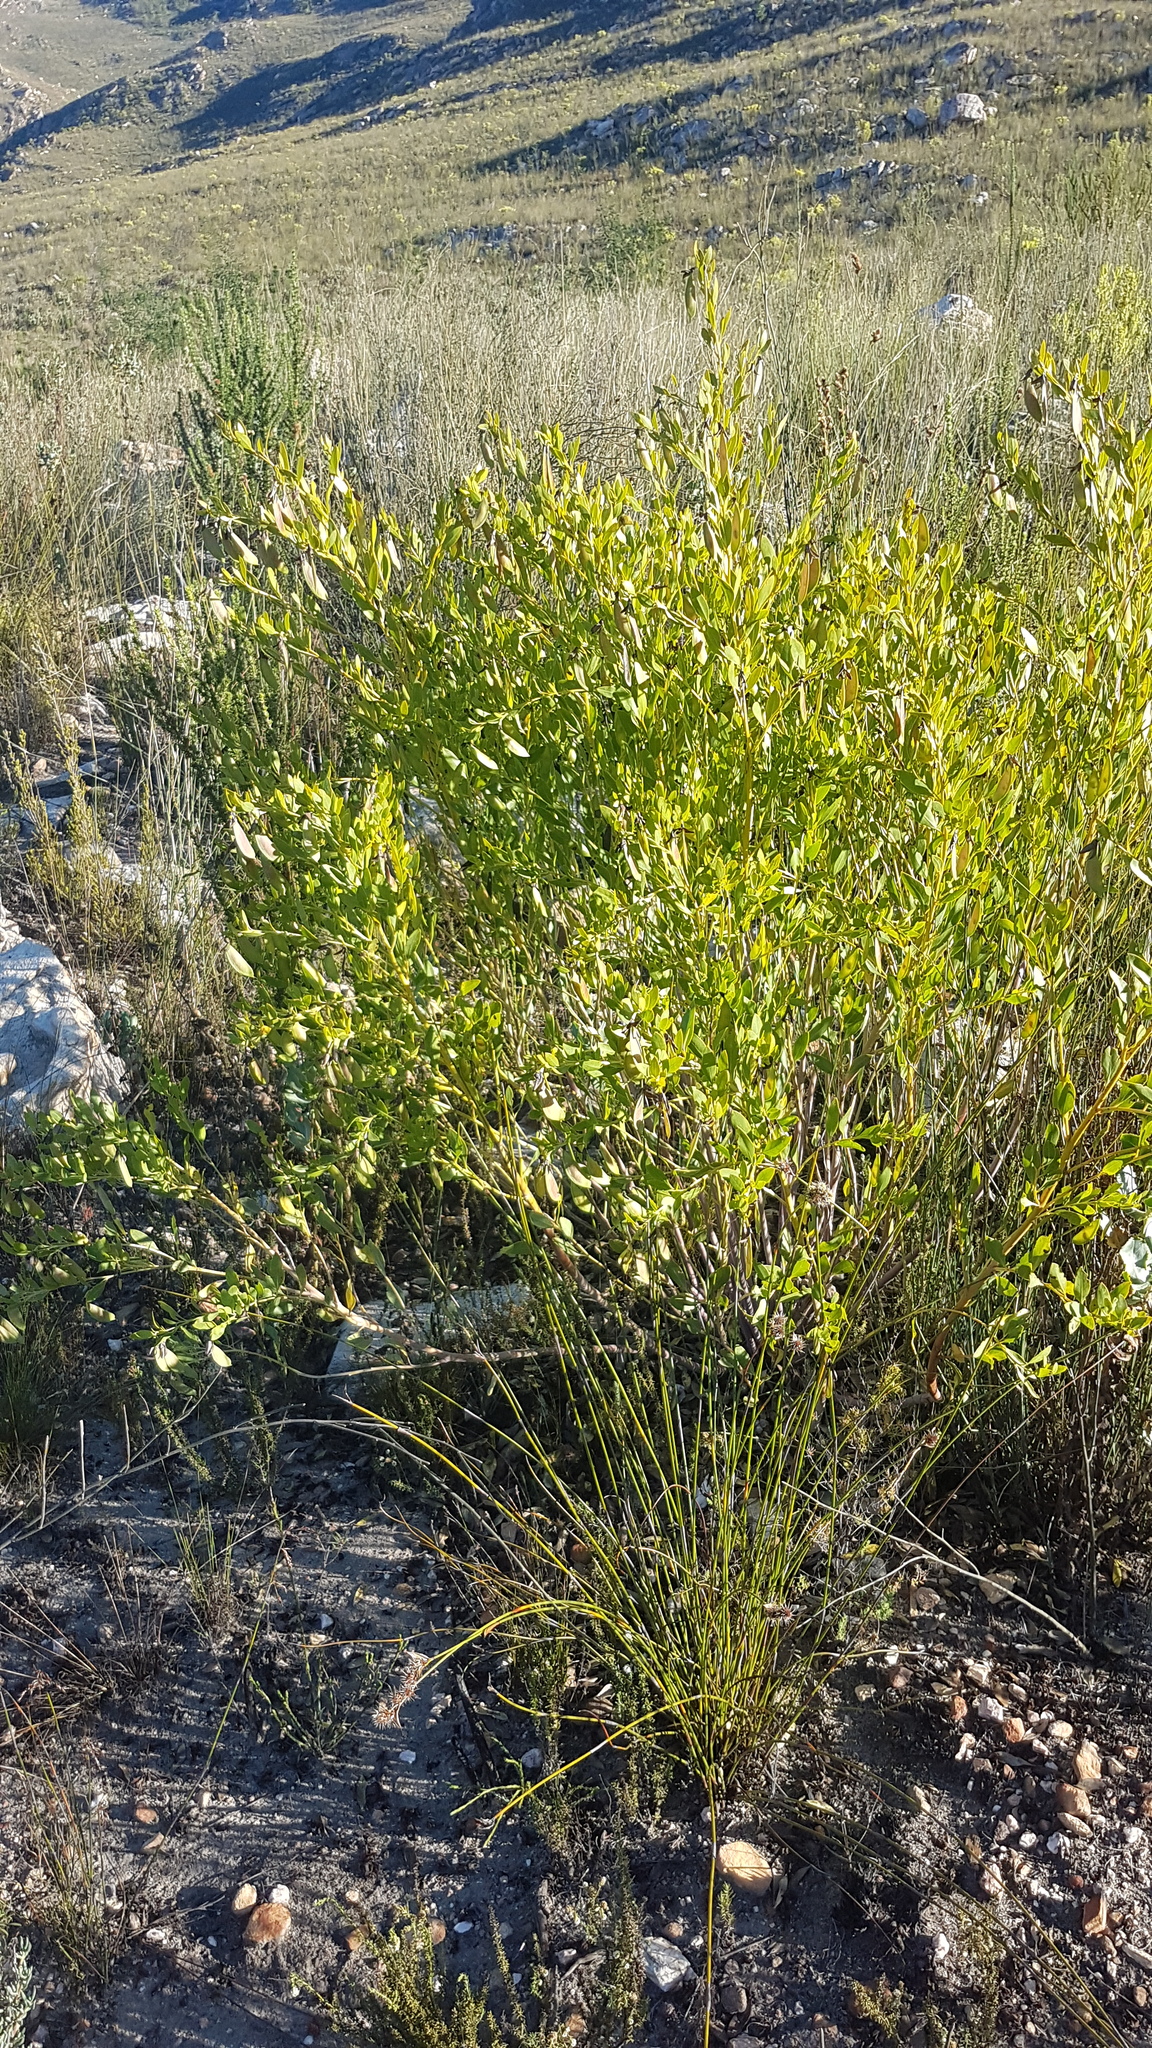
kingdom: Plantae
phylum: Tracheophyta
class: Magnoliopsida
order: Fabales
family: Fabaceae
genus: Rafnia
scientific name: Rafnia vlokii
